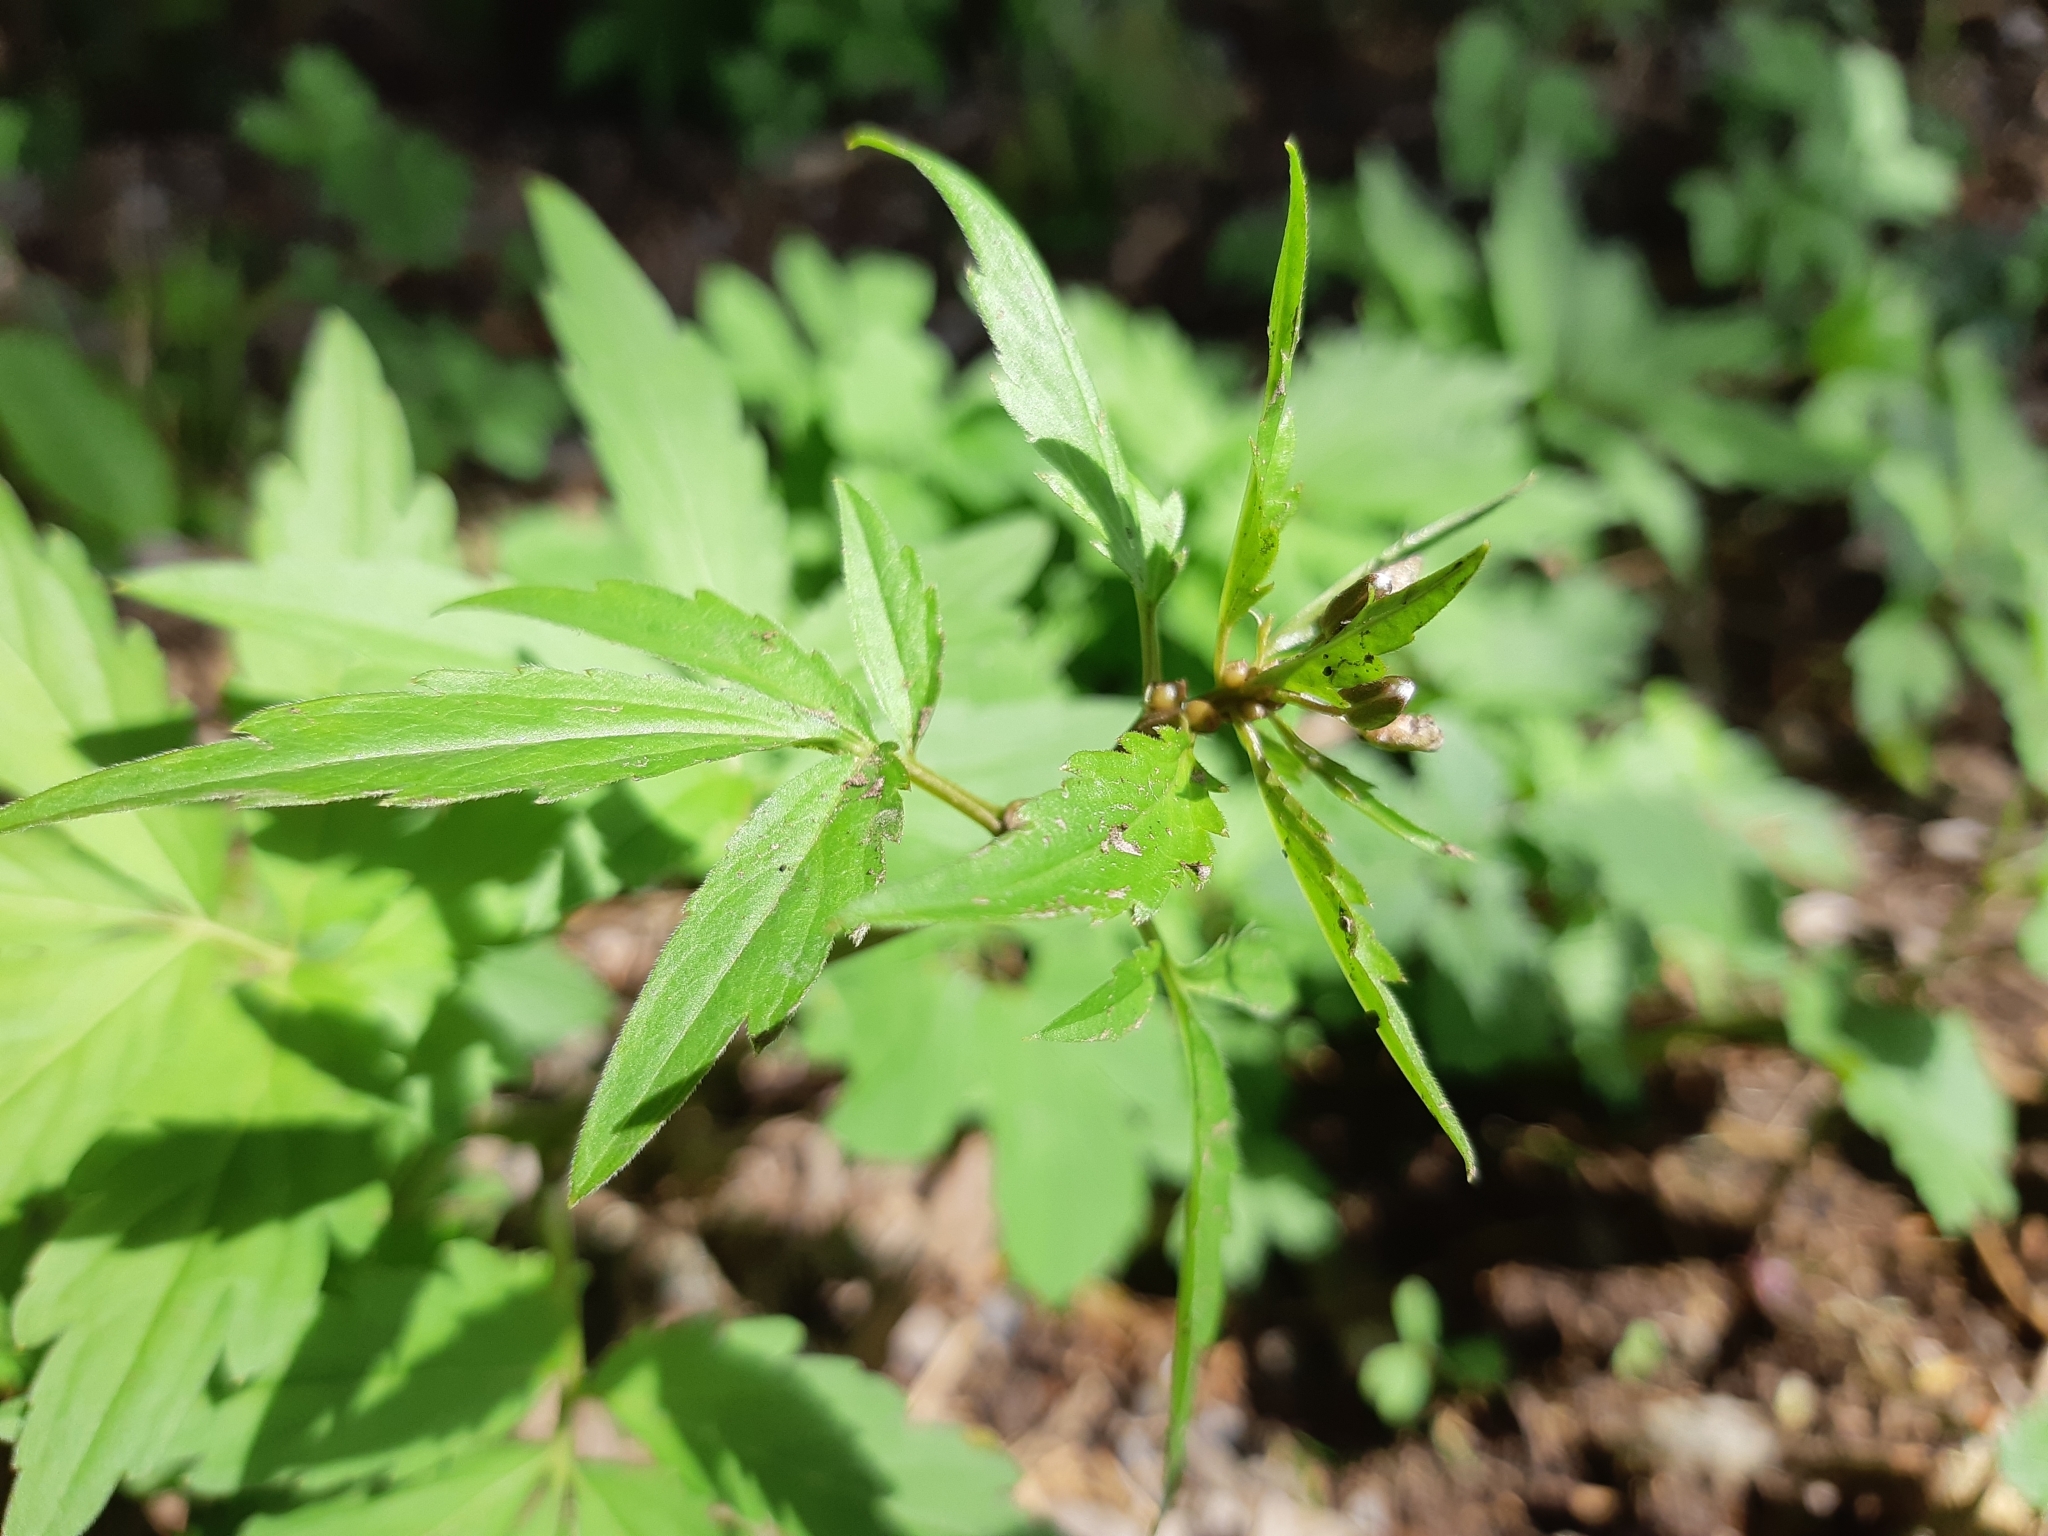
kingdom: Plantae
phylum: Tracheophyta
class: Magnoliopsida
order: Brassicales
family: Brassicaceae
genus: Cardamine
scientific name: Cardamine bulbifera
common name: Coralroot bittercress
